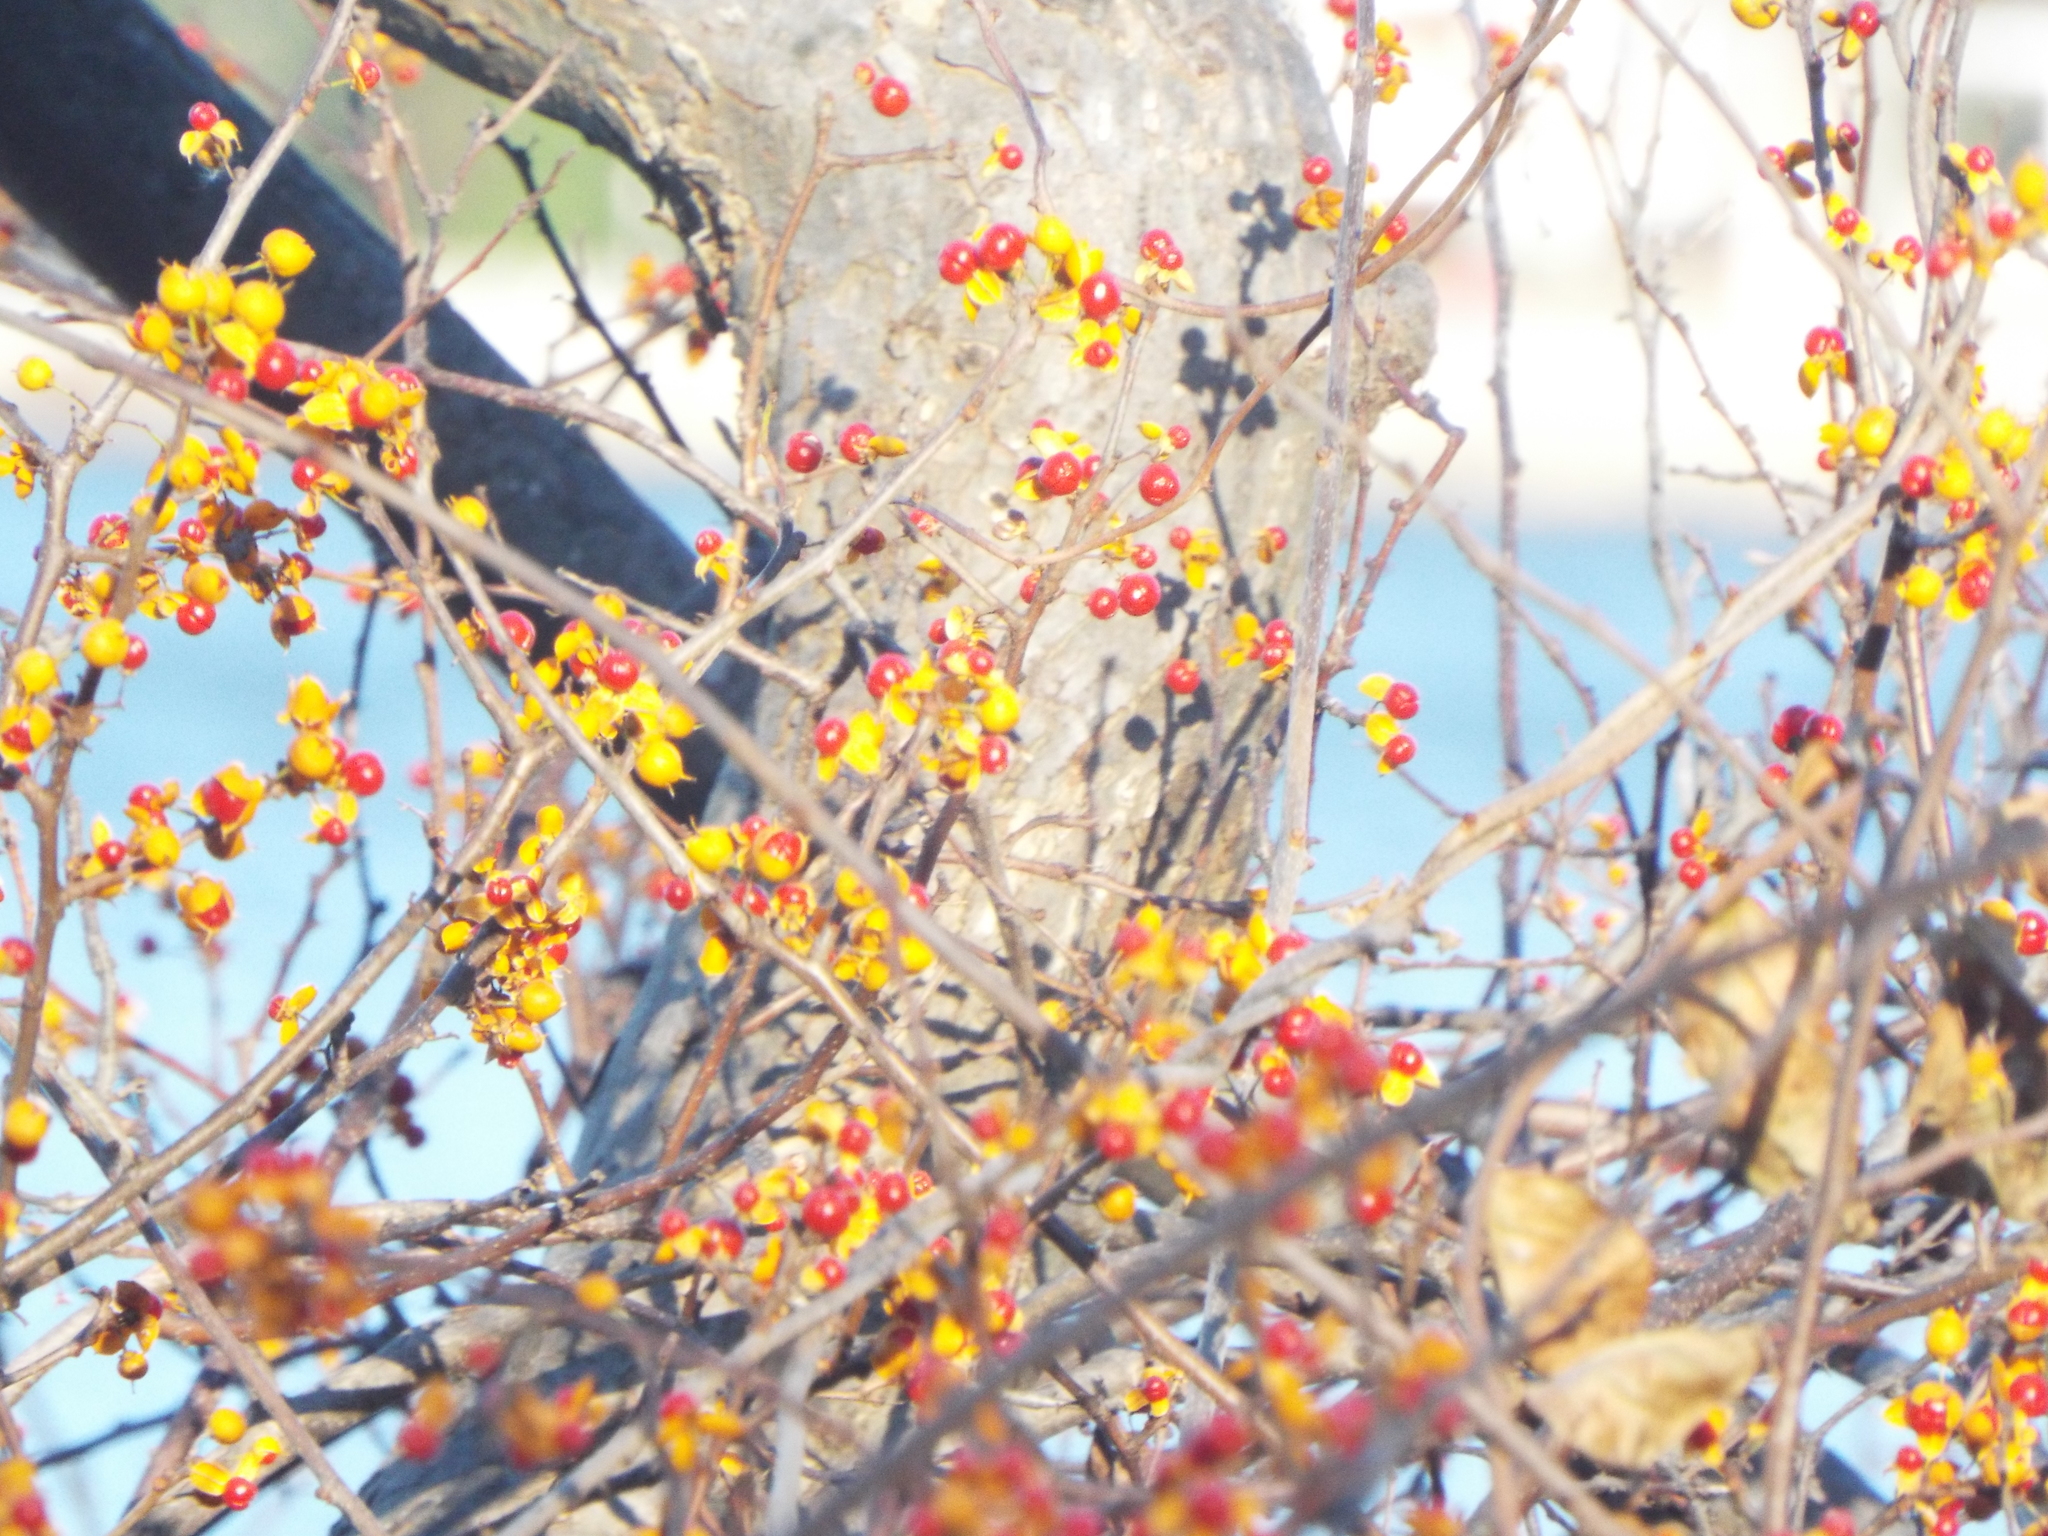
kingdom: Plantae
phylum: Tracheophyta
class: Magnoliopsida
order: Celastrales
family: Celastraceae
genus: Celastrus
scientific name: Celastrus orbiculatus
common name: Oriental bittersweet
